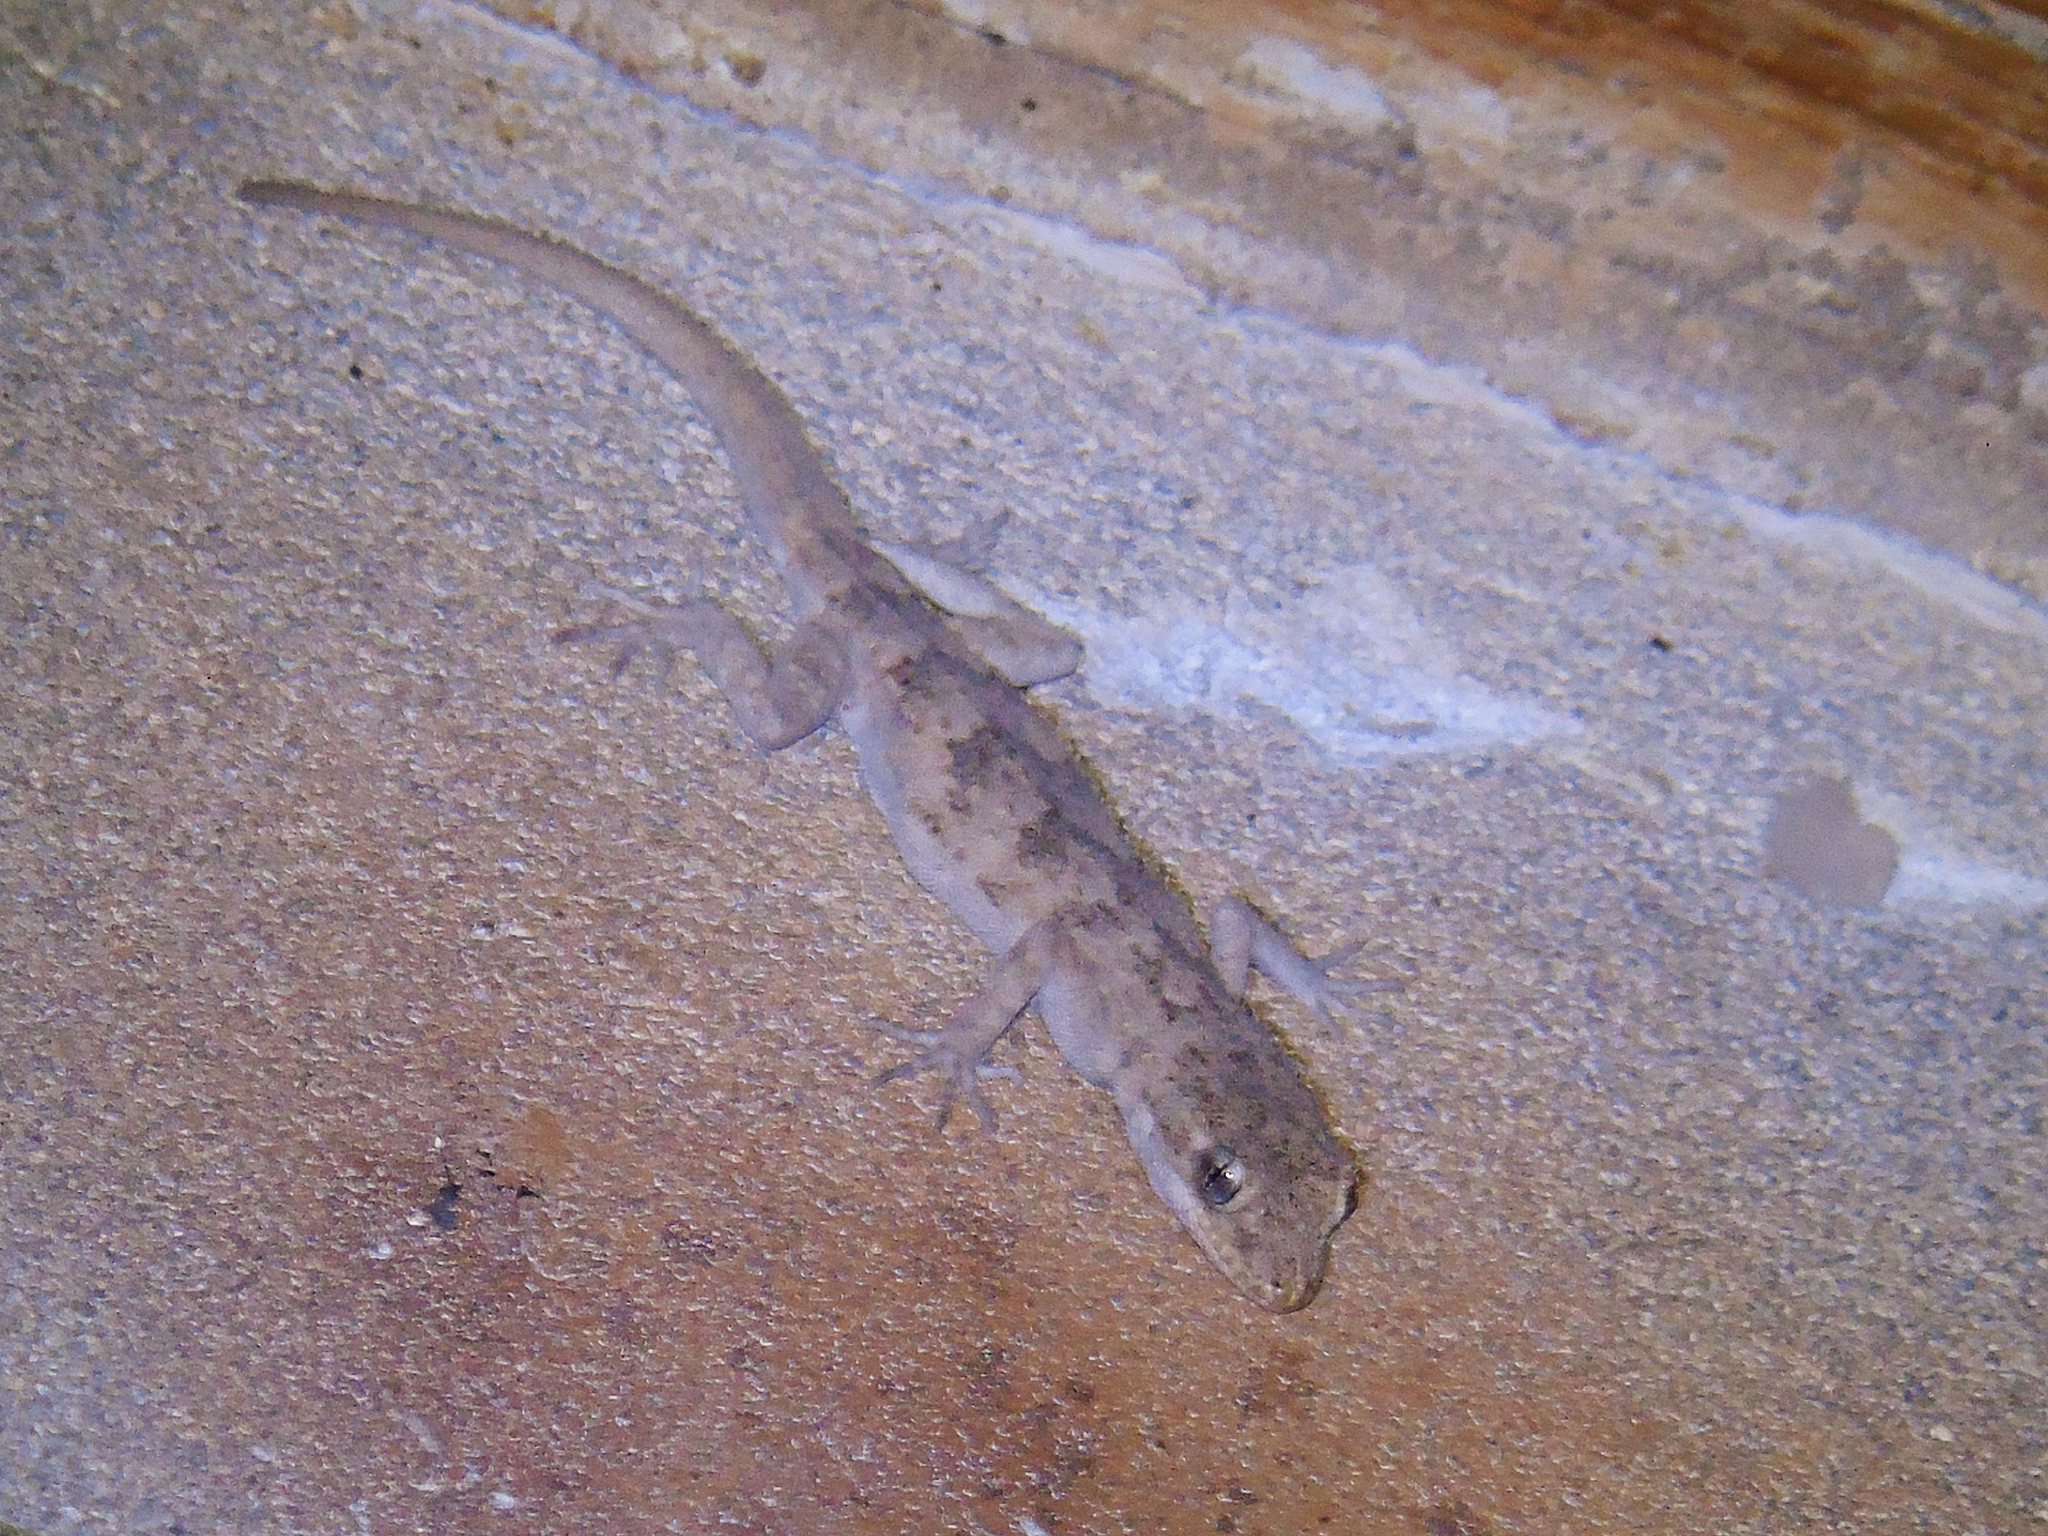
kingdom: Animalia
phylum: Chordata
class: Squamata
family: Gekkonidae
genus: Mediodactylus
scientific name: Mediodactylus russowii
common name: Grey thin-toed gecko
